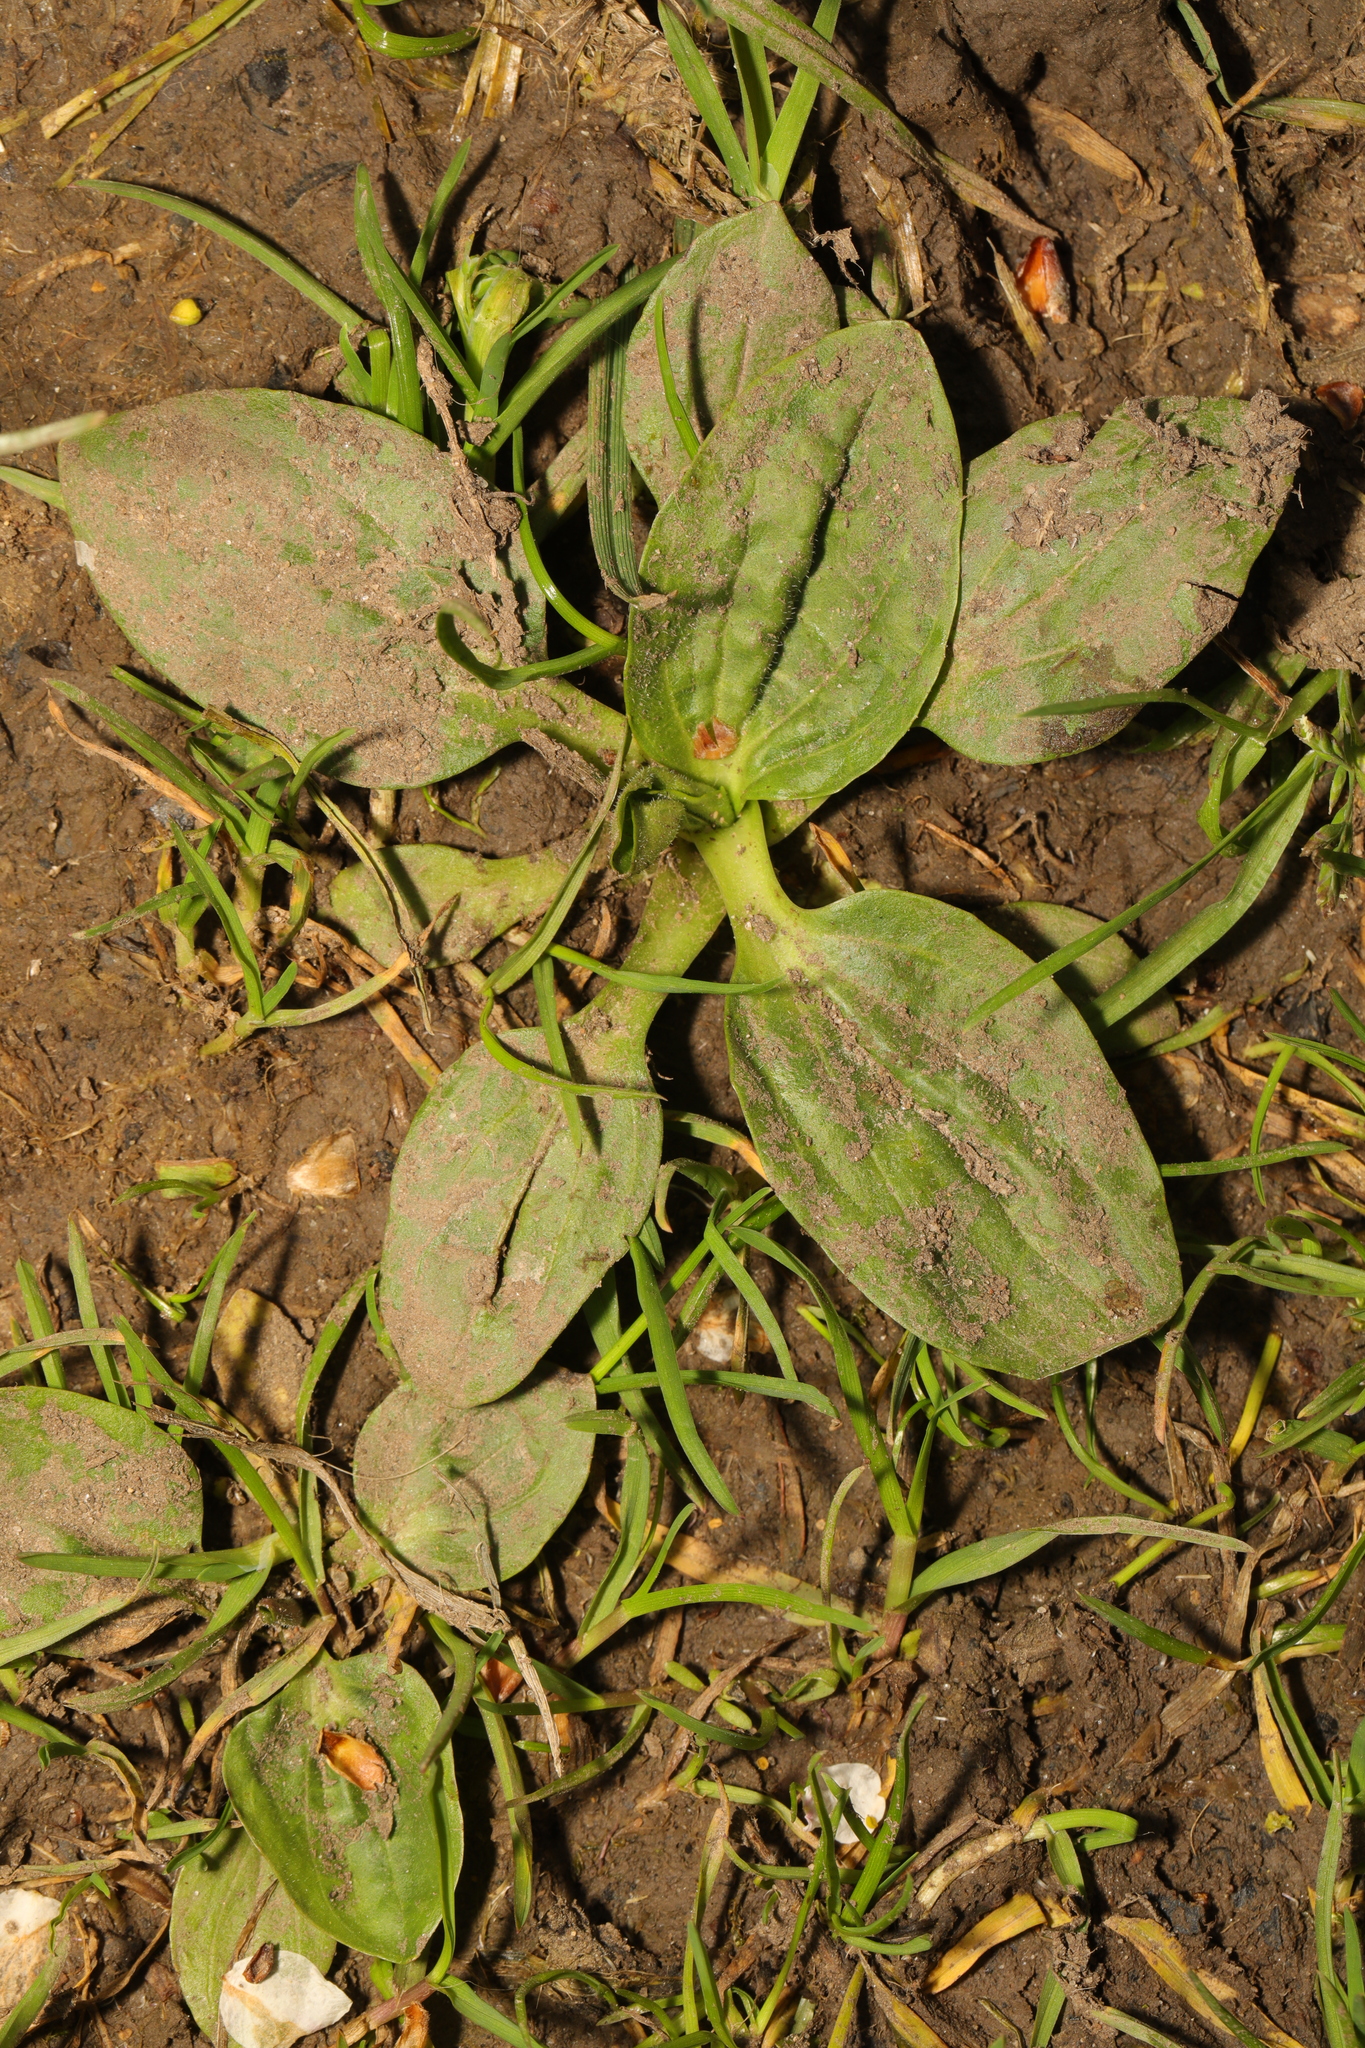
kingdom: Plantae
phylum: Tracheophyta
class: Magnoliopsida
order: Lamiales
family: Plantaginaceae
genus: Plantago
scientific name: Plantago major
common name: Common plantain
